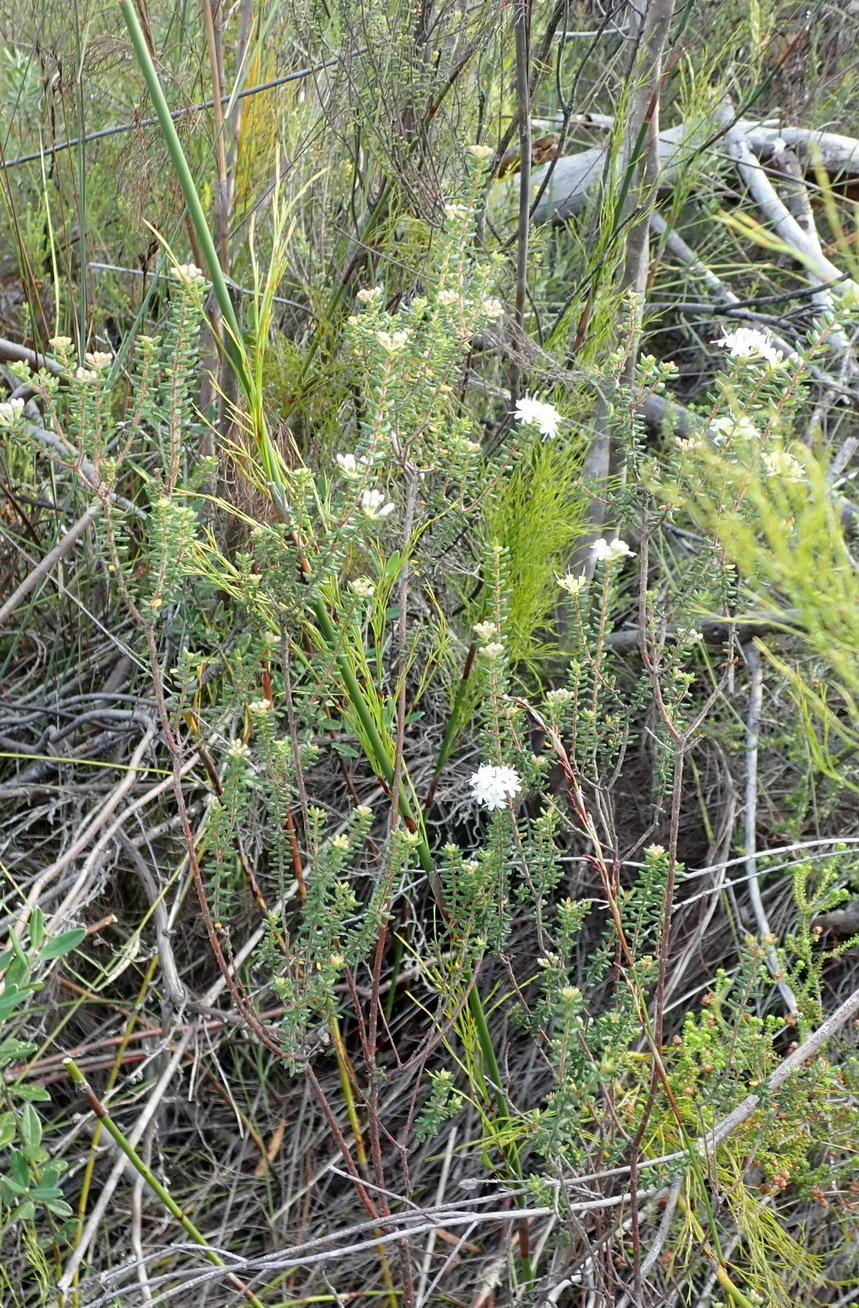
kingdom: Plantae
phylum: Tracheophyta
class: Magnoliopsida
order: Sapindales
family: Rutaceae
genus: Agathosma
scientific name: Agathosma blaerioides
